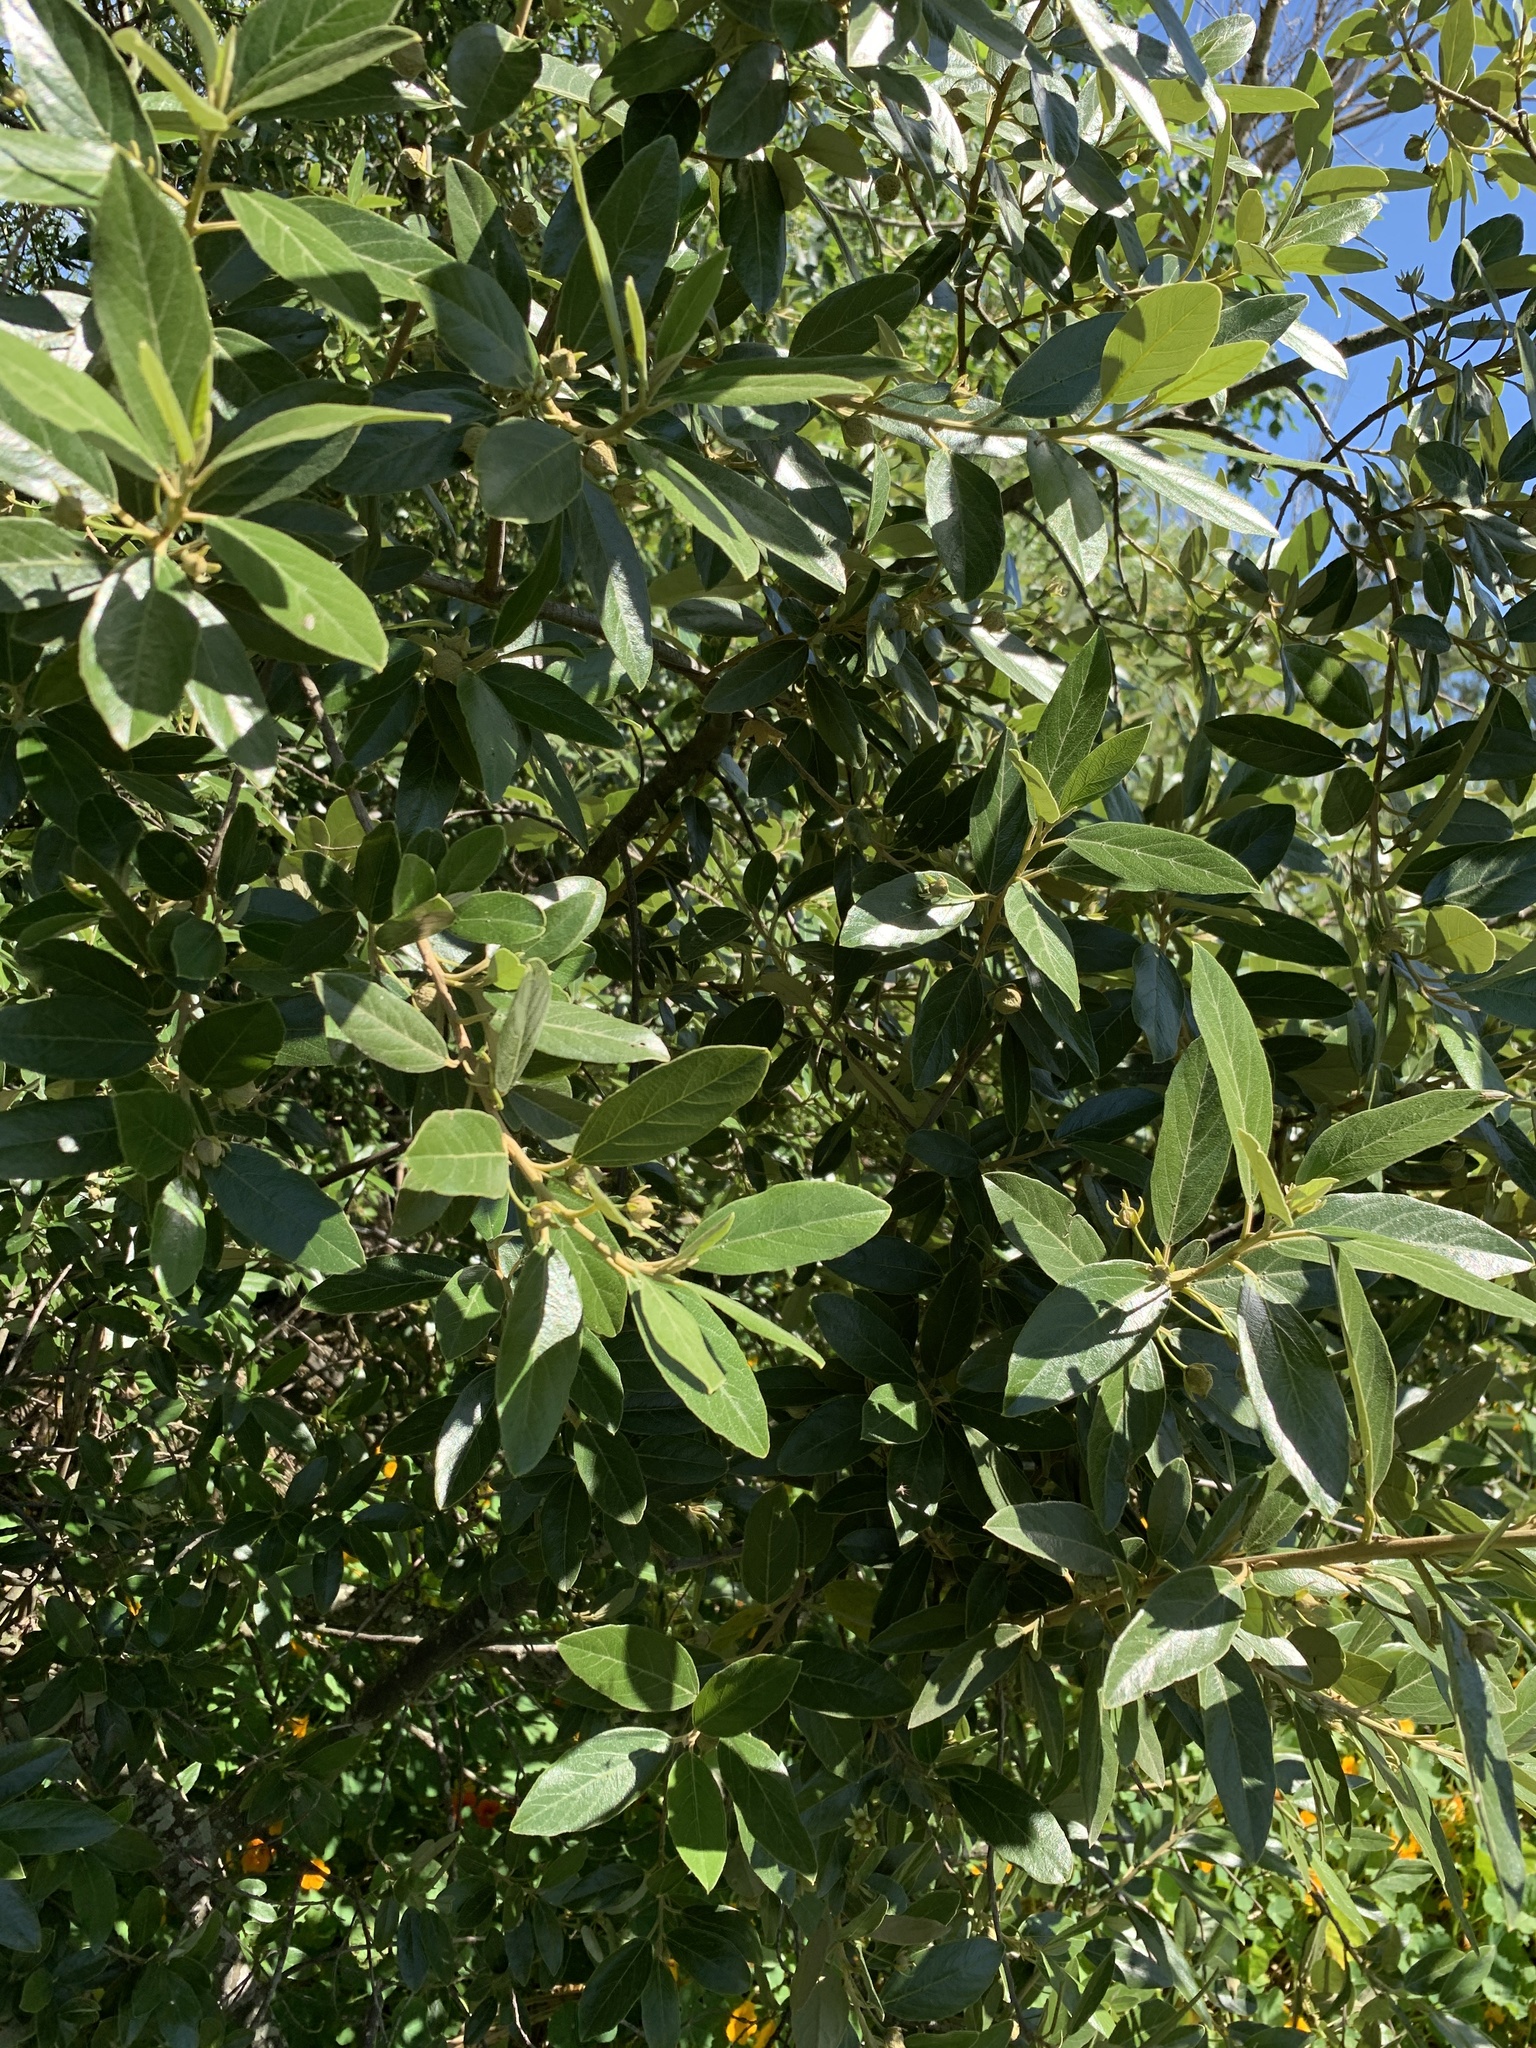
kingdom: Plantae
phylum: Tracheophyta
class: Magnoliopsida
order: Malpighiales
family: Achariaceae
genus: Kiggelaria
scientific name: Kiggelaria africana
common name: Wild peach
